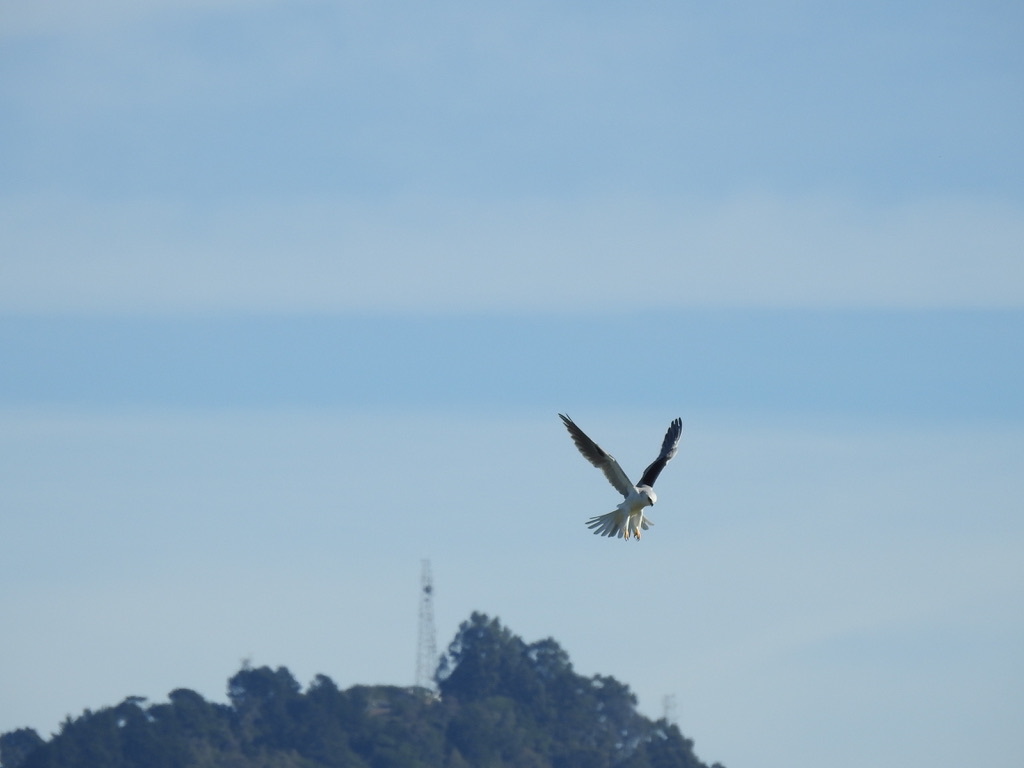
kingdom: Animalia
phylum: Chordata
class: Aves
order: Accipitriformes
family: Accipitridae
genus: Elanus
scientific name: Elanus leucurus
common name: White-tailed kite
